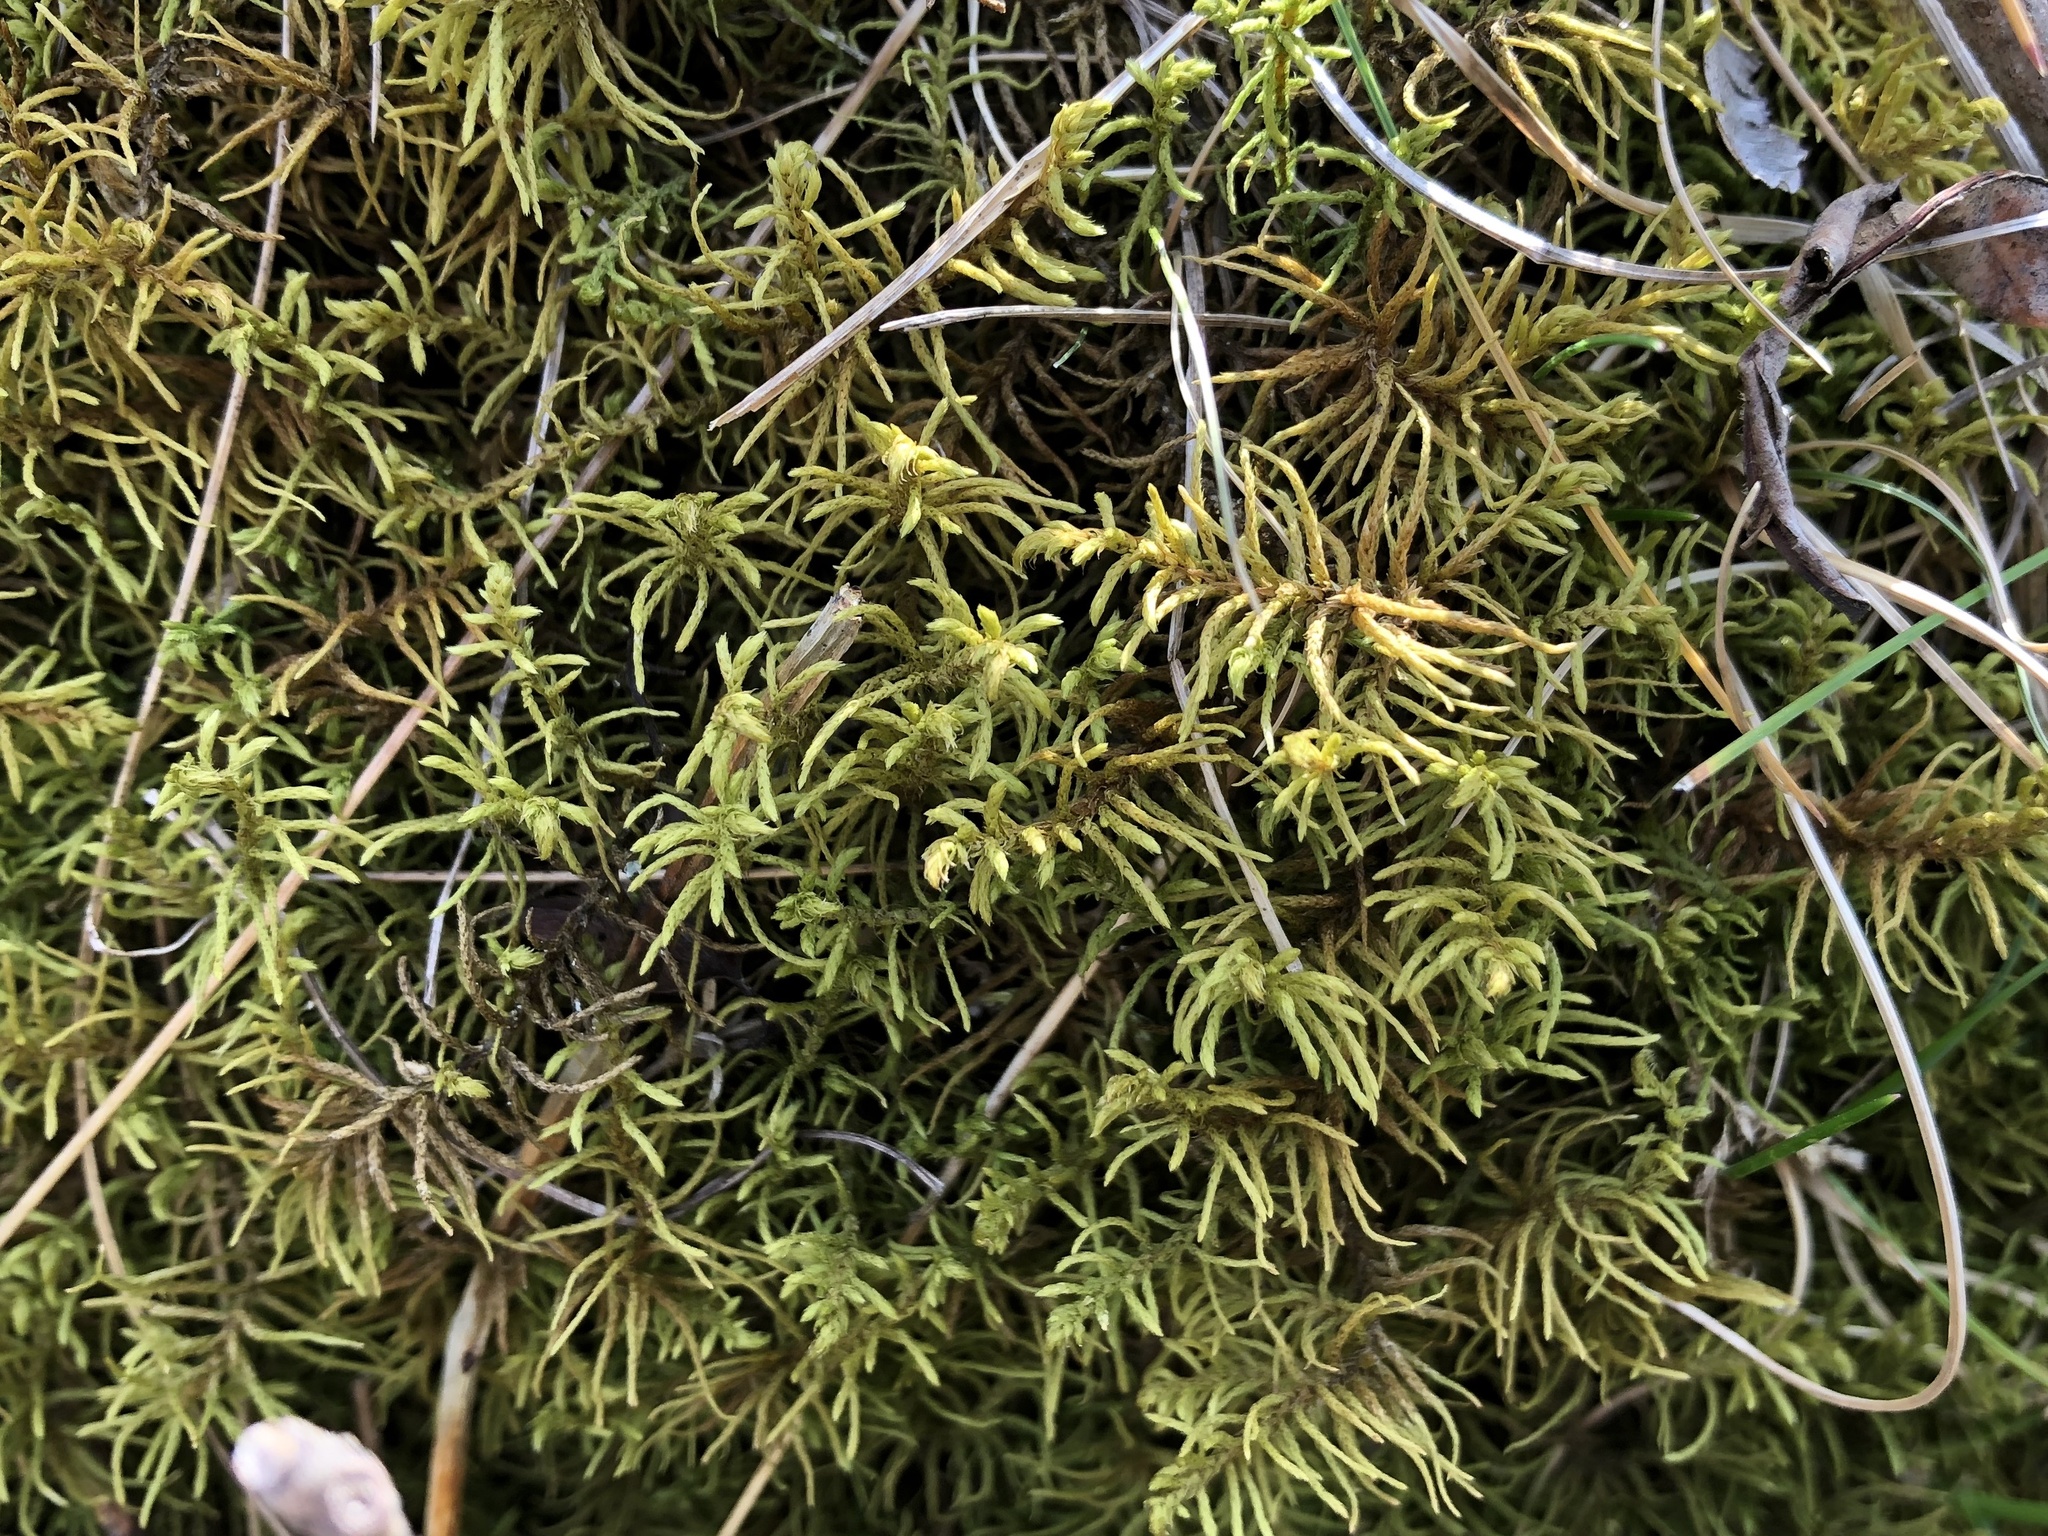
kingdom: Plantae
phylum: Bryophyta
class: Bryopsida
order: Hypnales
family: Thuidiaceae
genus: Abietinella
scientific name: Abietinella abietina
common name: Wiry fern moss
